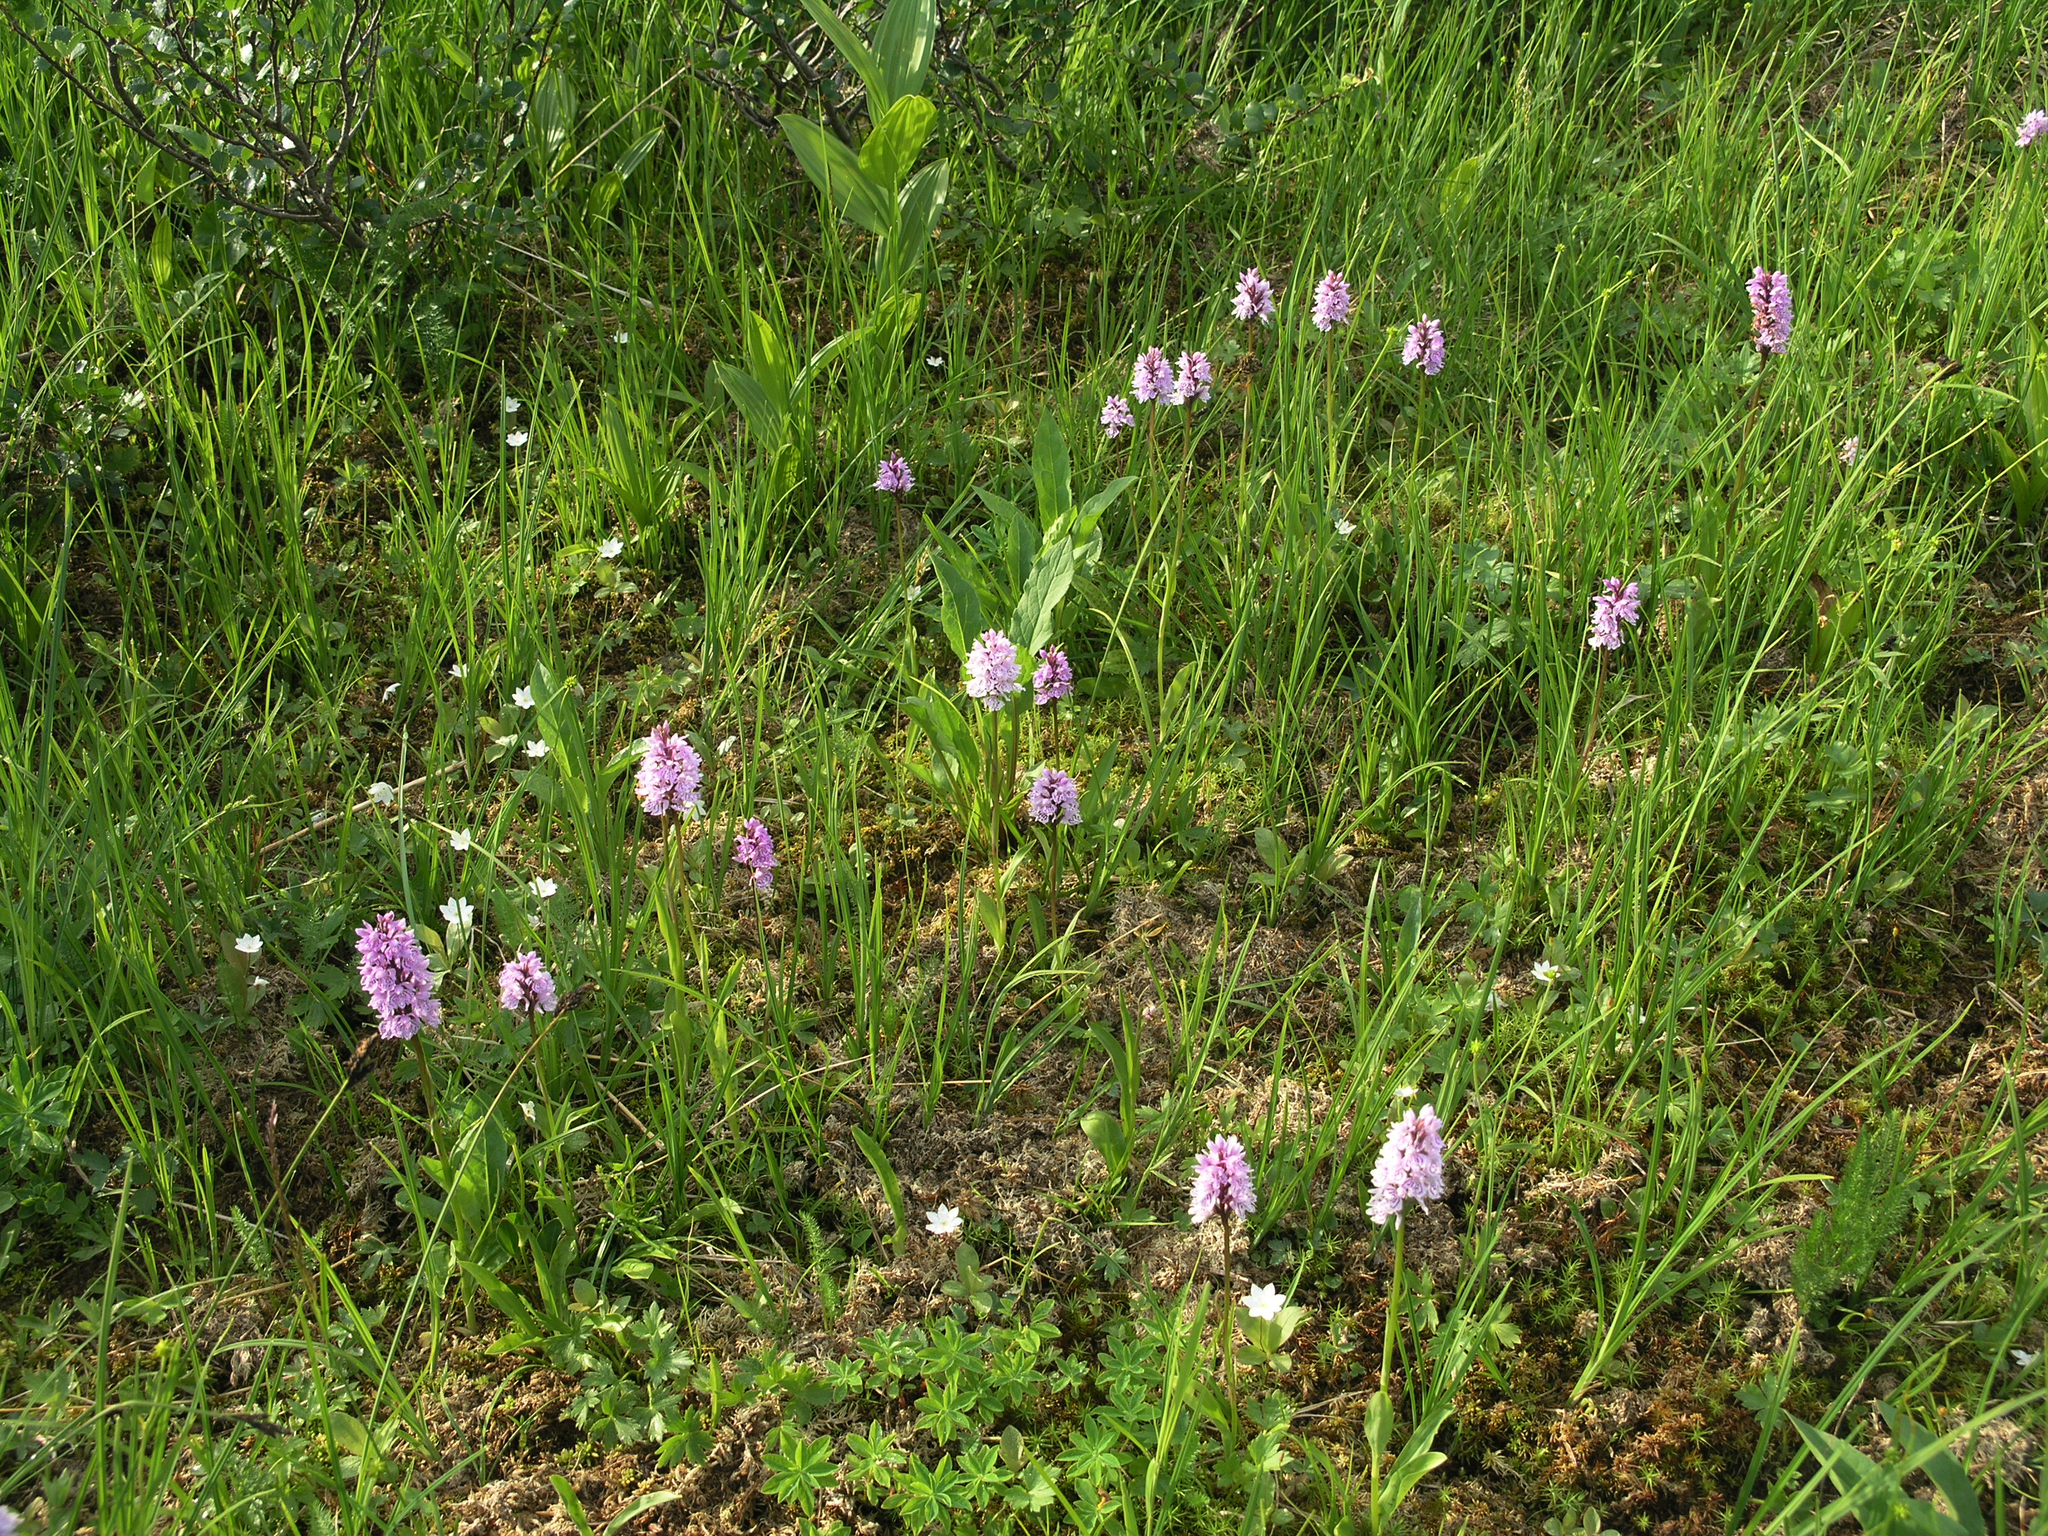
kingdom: Plantae
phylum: Tracheophyta
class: Liliopsida
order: Asparagales
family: Orchidaceae
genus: Dactylorhiza
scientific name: Dactylorhiza maculata
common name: Heath spotted-orchid
